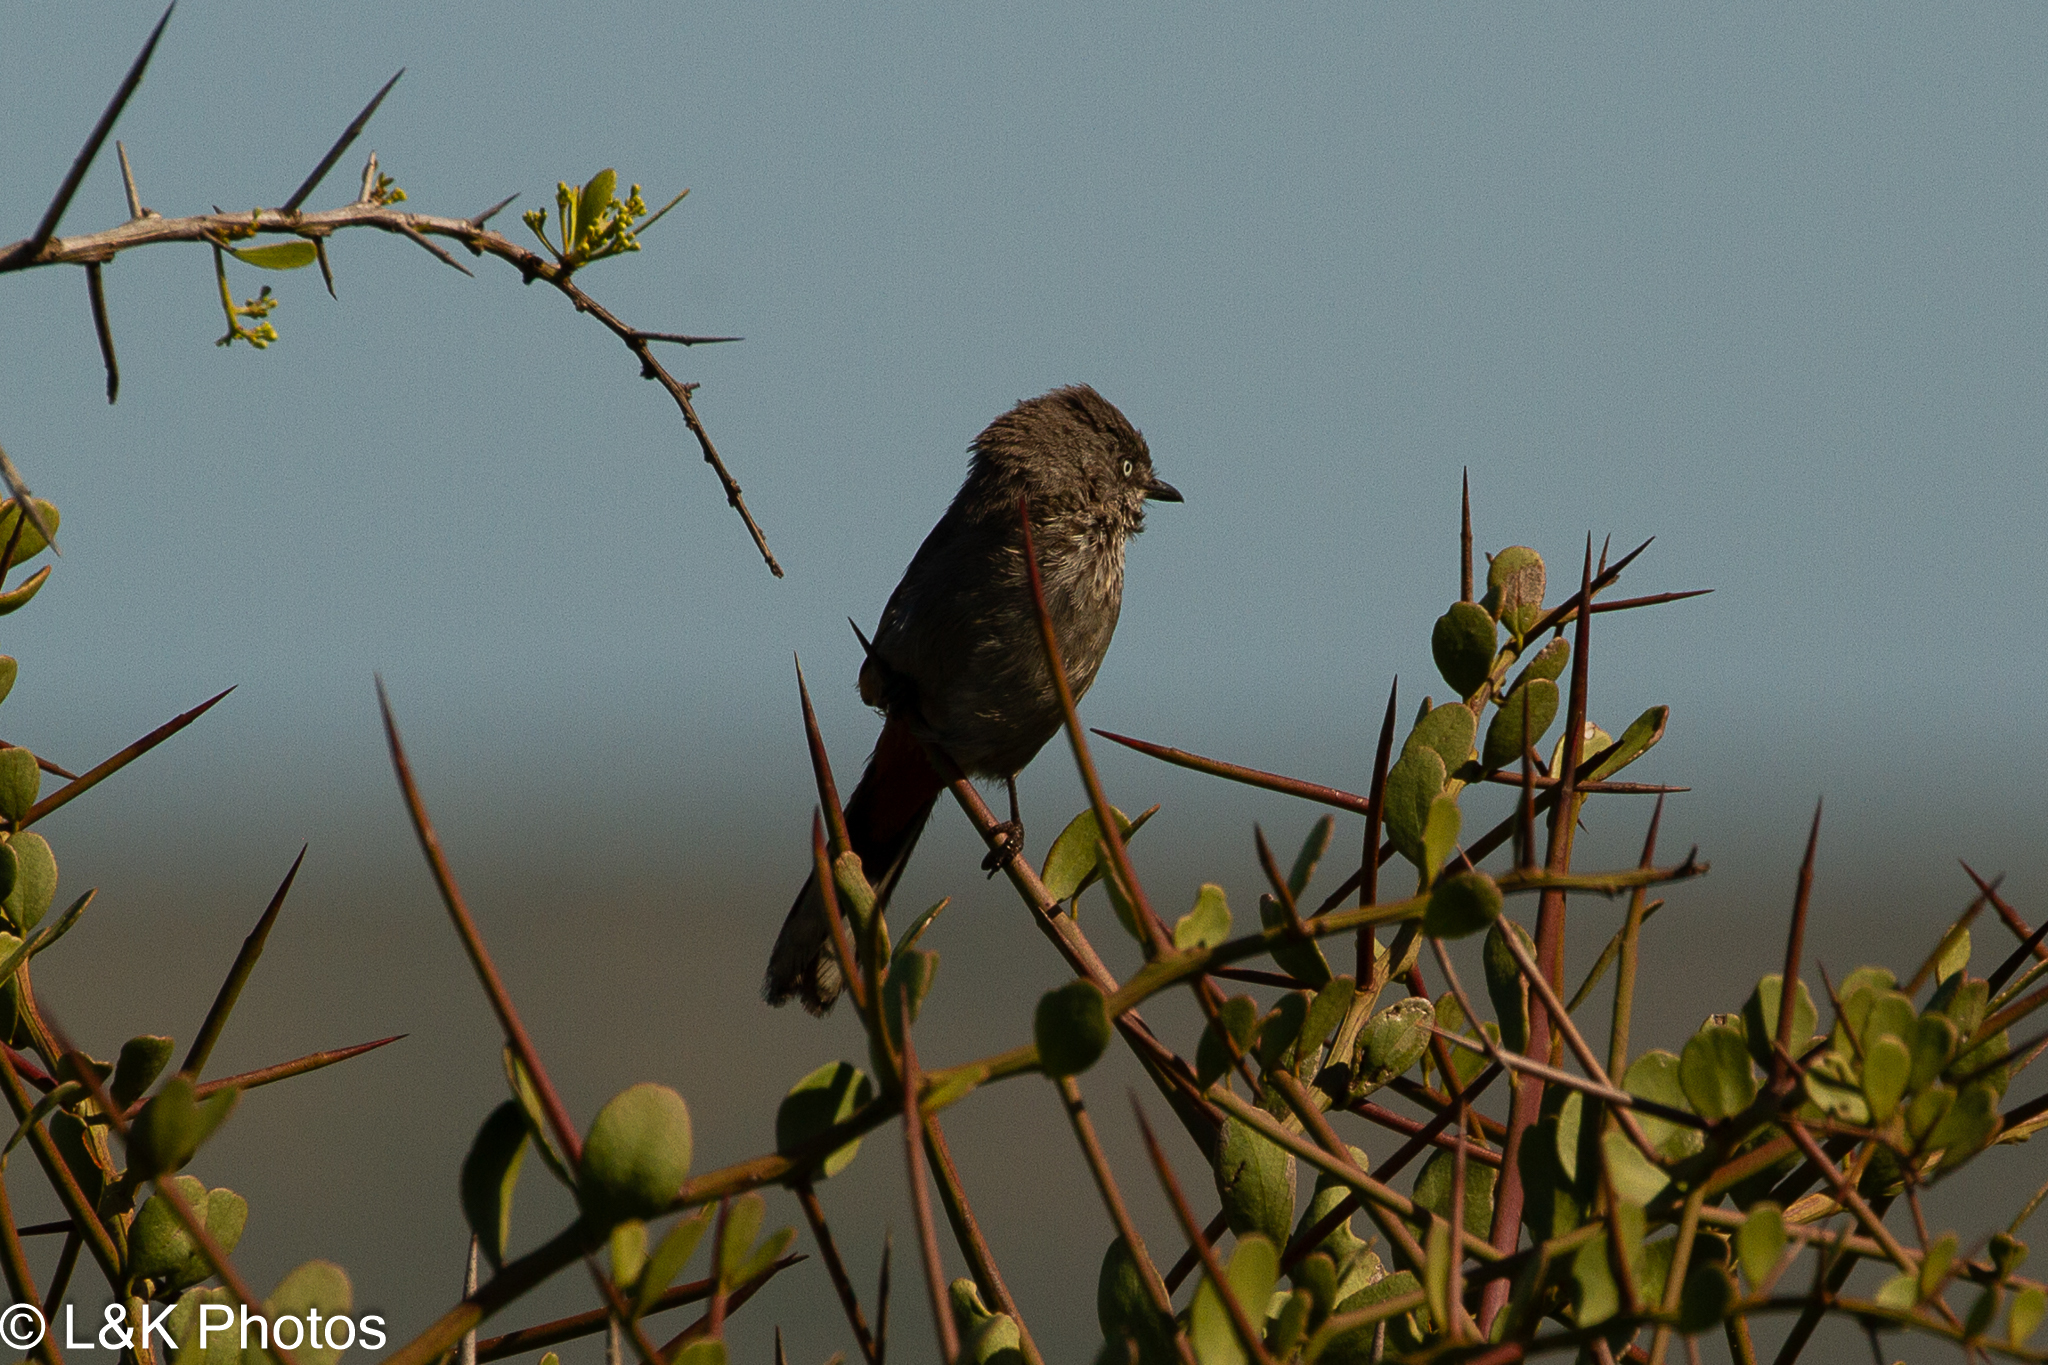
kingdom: Animalia
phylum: Chordata
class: Aves
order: Passeriformes
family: Sylviidae
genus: Curruca
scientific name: Curruca subcoerulea
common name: Chestnut-vented warbler
